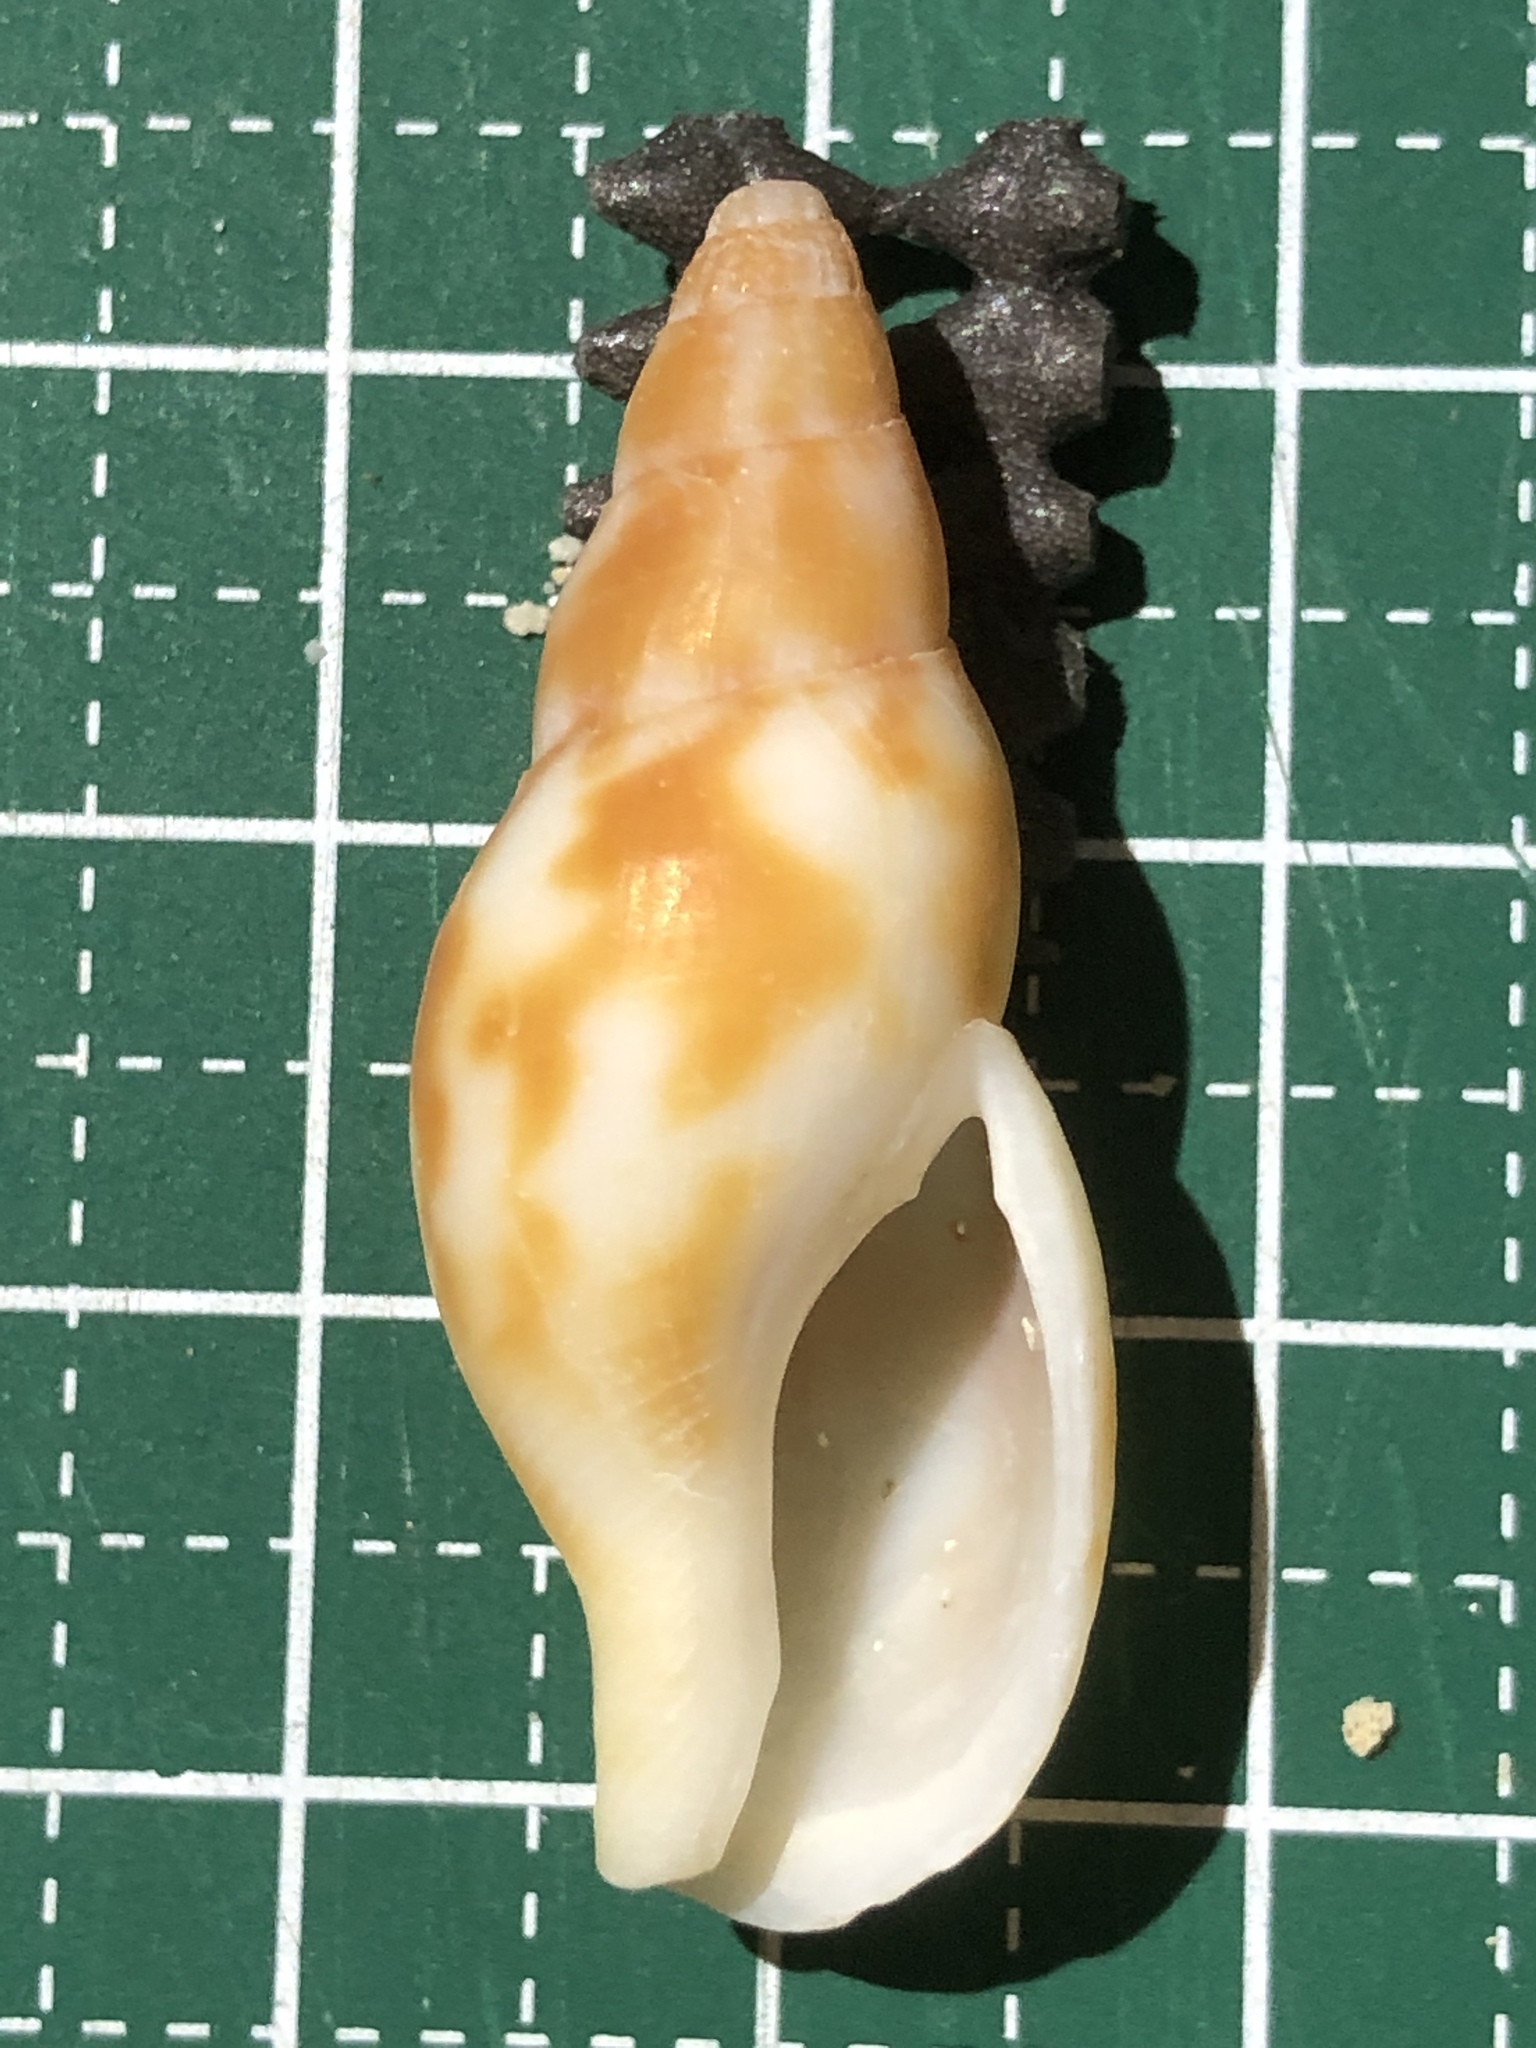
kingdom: Animalia
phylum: Mollusca
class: Gastropoda
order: Neogastropoda
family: Pisaniidae
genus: Pisania
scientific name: Pisania ignea
